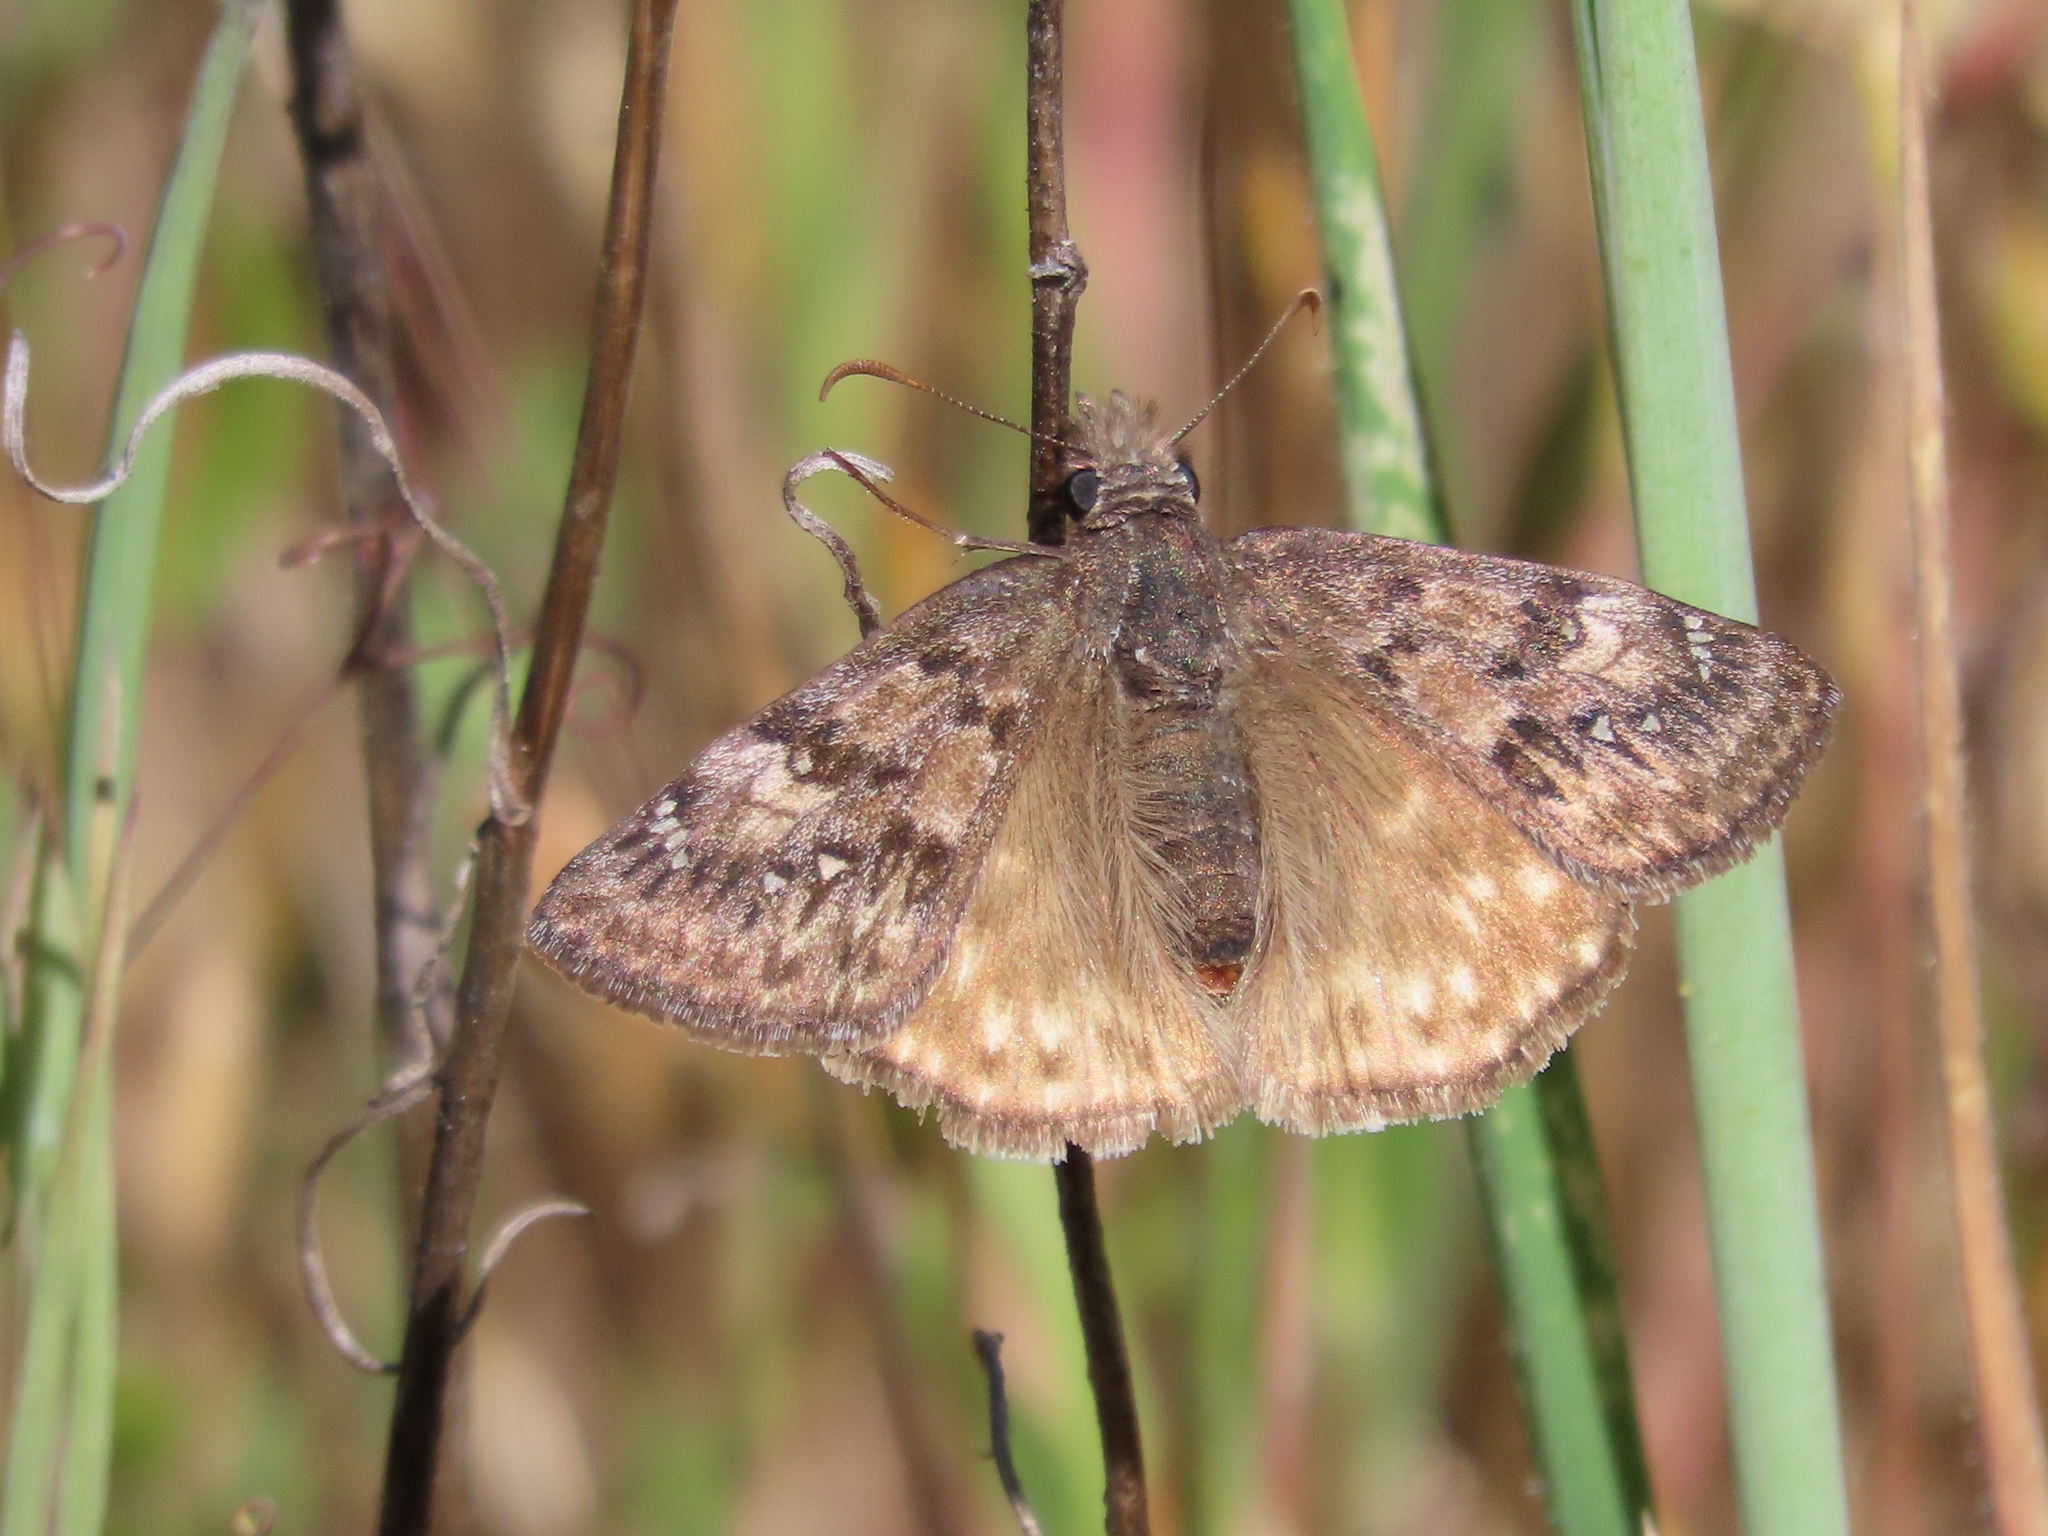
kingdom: Animalia
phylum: Arthropoda
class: Insecta
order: Lepidoptera
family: Hesperiidae
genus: Erynnis
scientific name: Erynnis propertius
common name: Propertius duskywing
